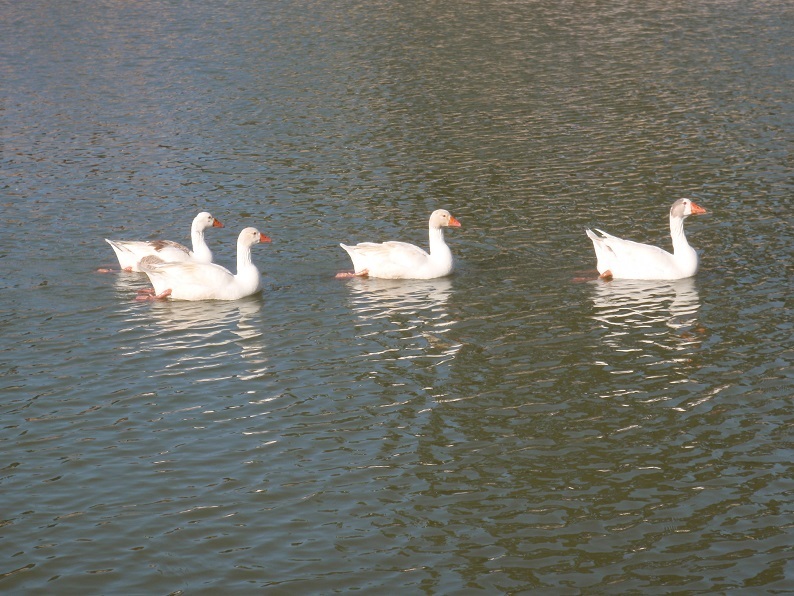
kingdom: Animalia
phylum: Chordata
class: Aves
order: Anseriformes
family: Anatidae
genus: Anser
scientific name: Anser anser
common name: Greylag goose
